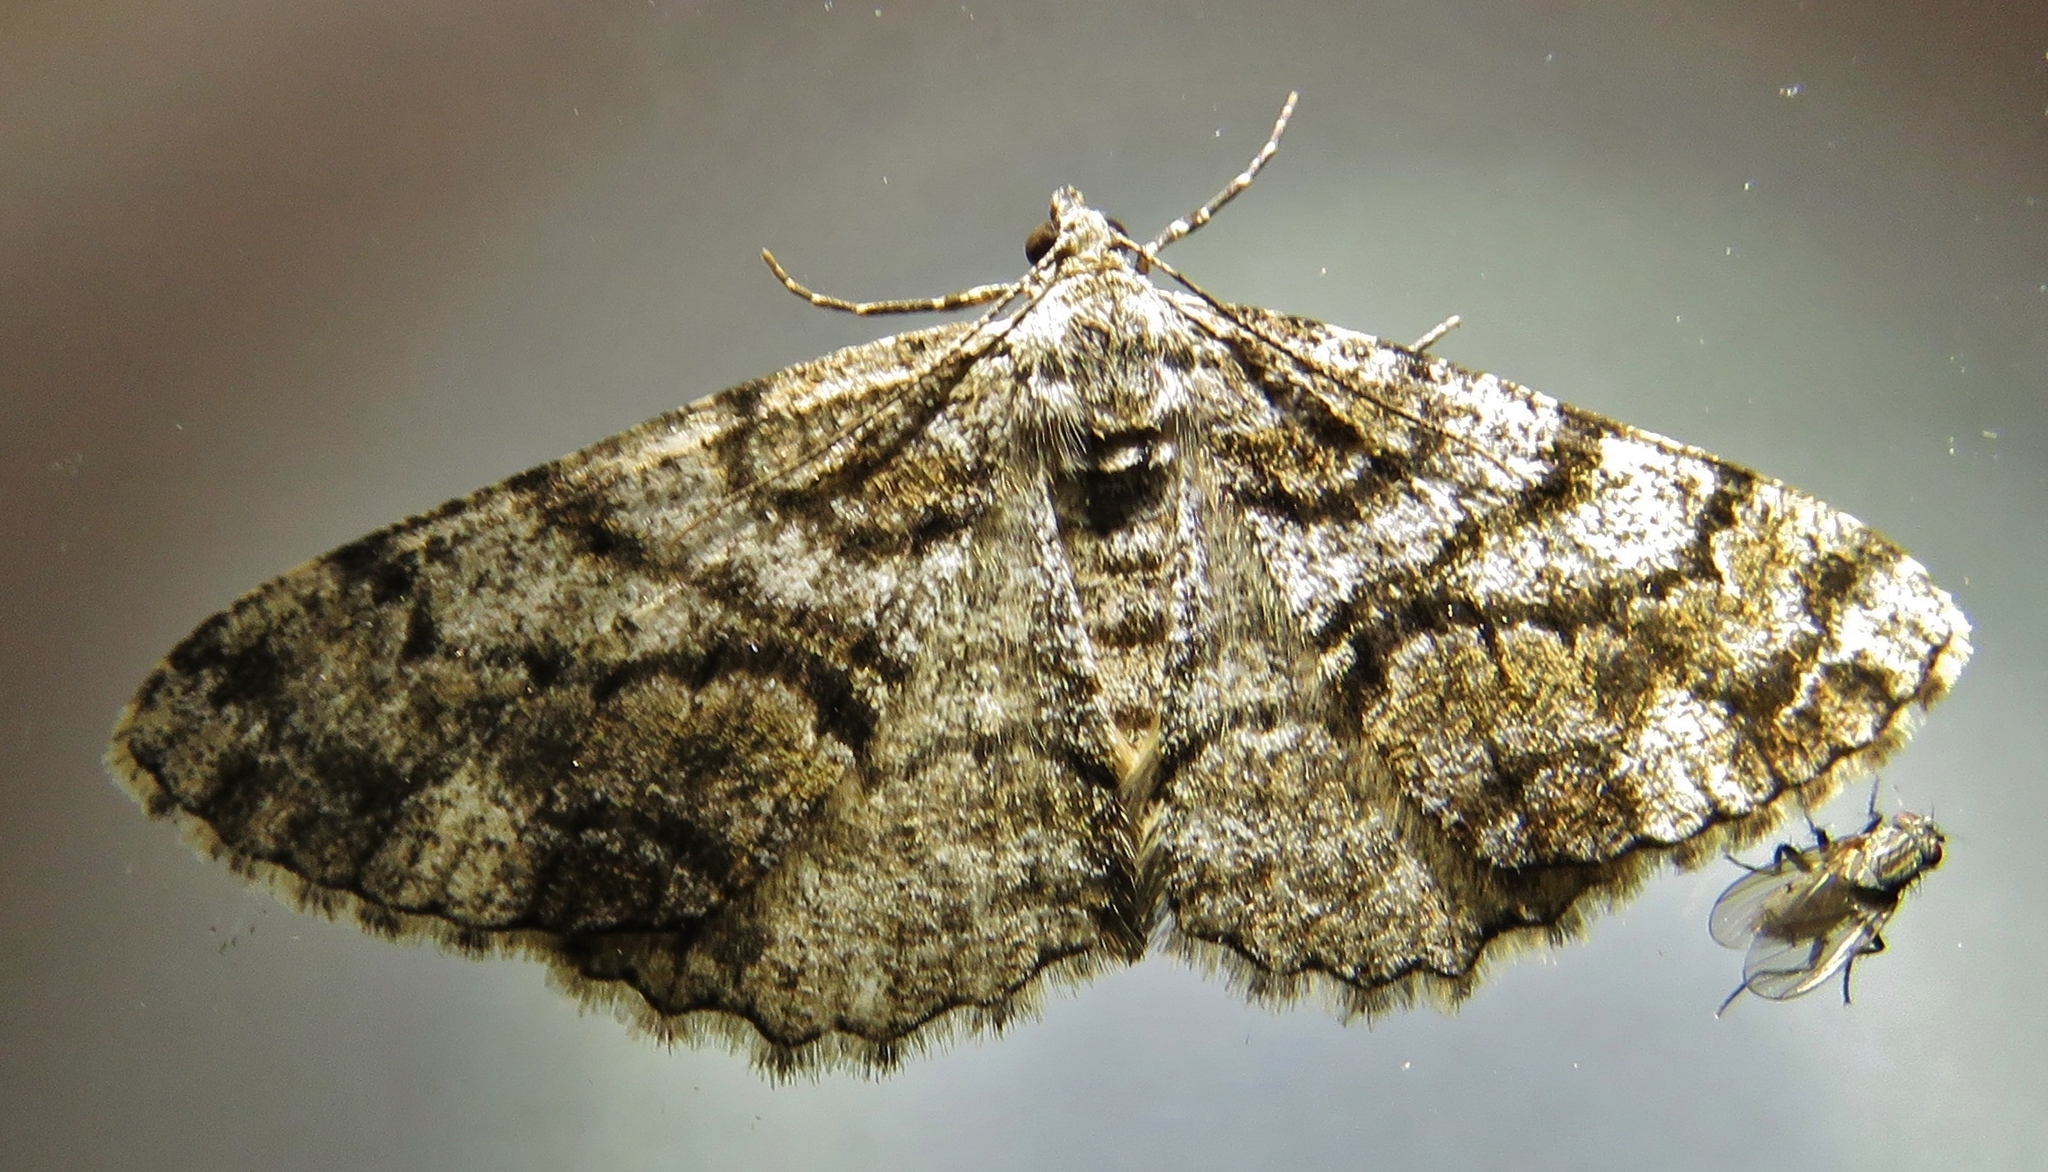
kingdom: Animalia
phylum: Arthropoda
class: Insecta
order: Lepidoptera
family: Geometridae
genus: Peribatodes
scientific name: Peribatodes secundaria
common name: Feathered beauty
